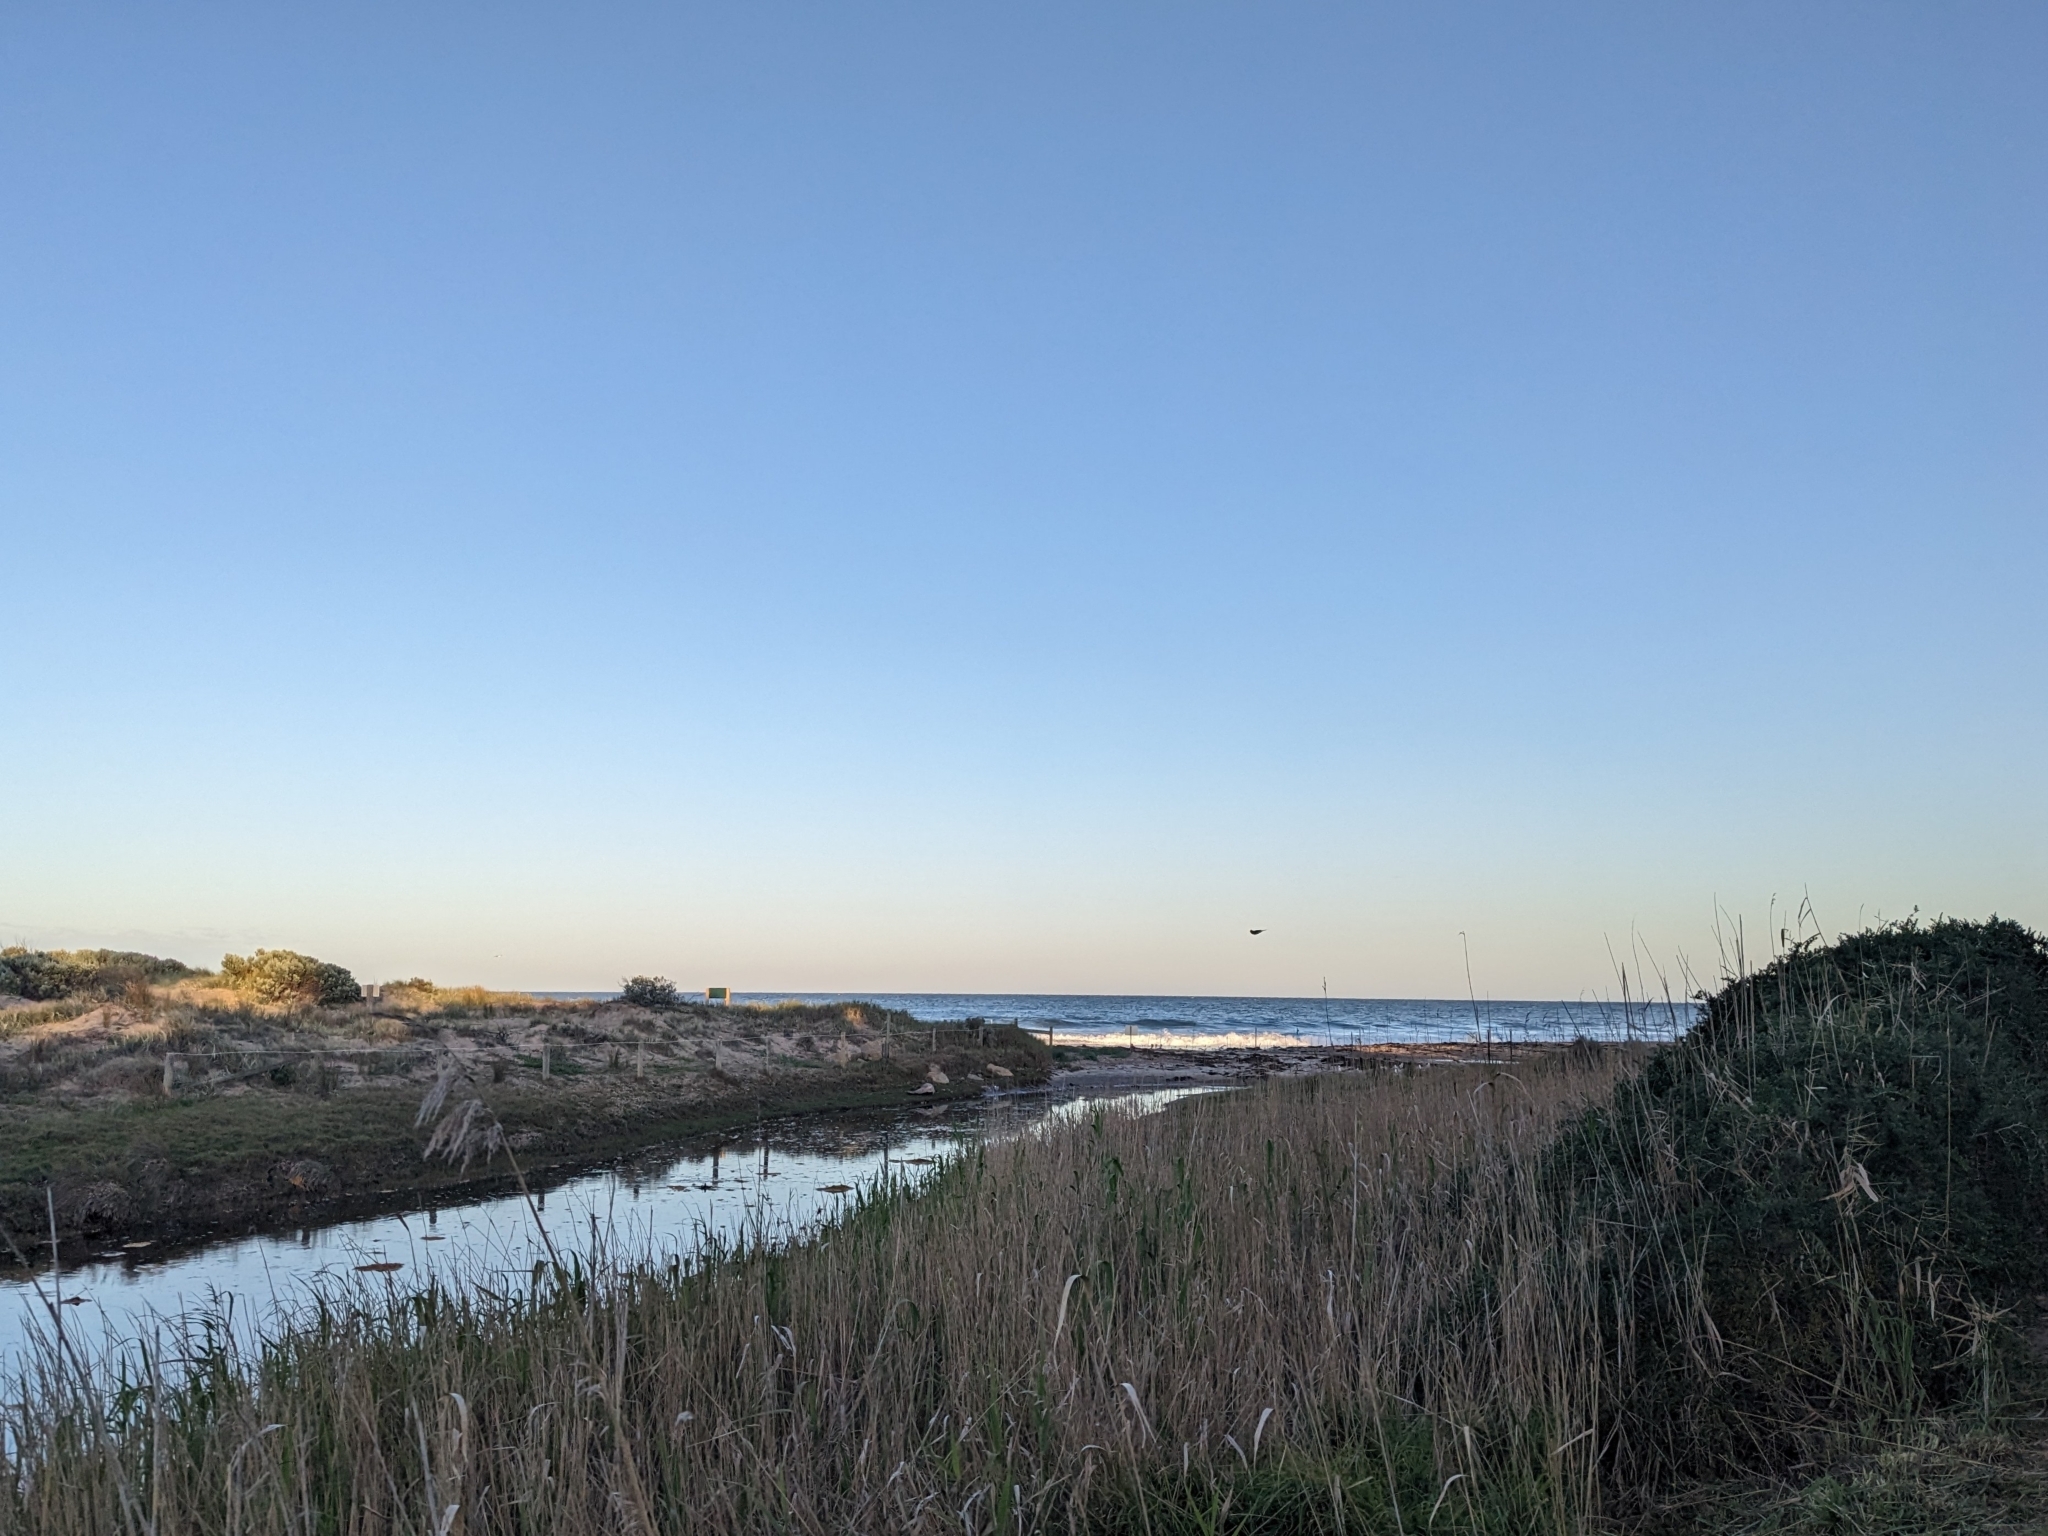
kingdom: Animalia
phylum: Chordata
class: Aves
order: Passeriformes
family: Hirundinidae
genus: Hirundo
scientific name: Hirundo neoxena
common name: Welcome swallow
